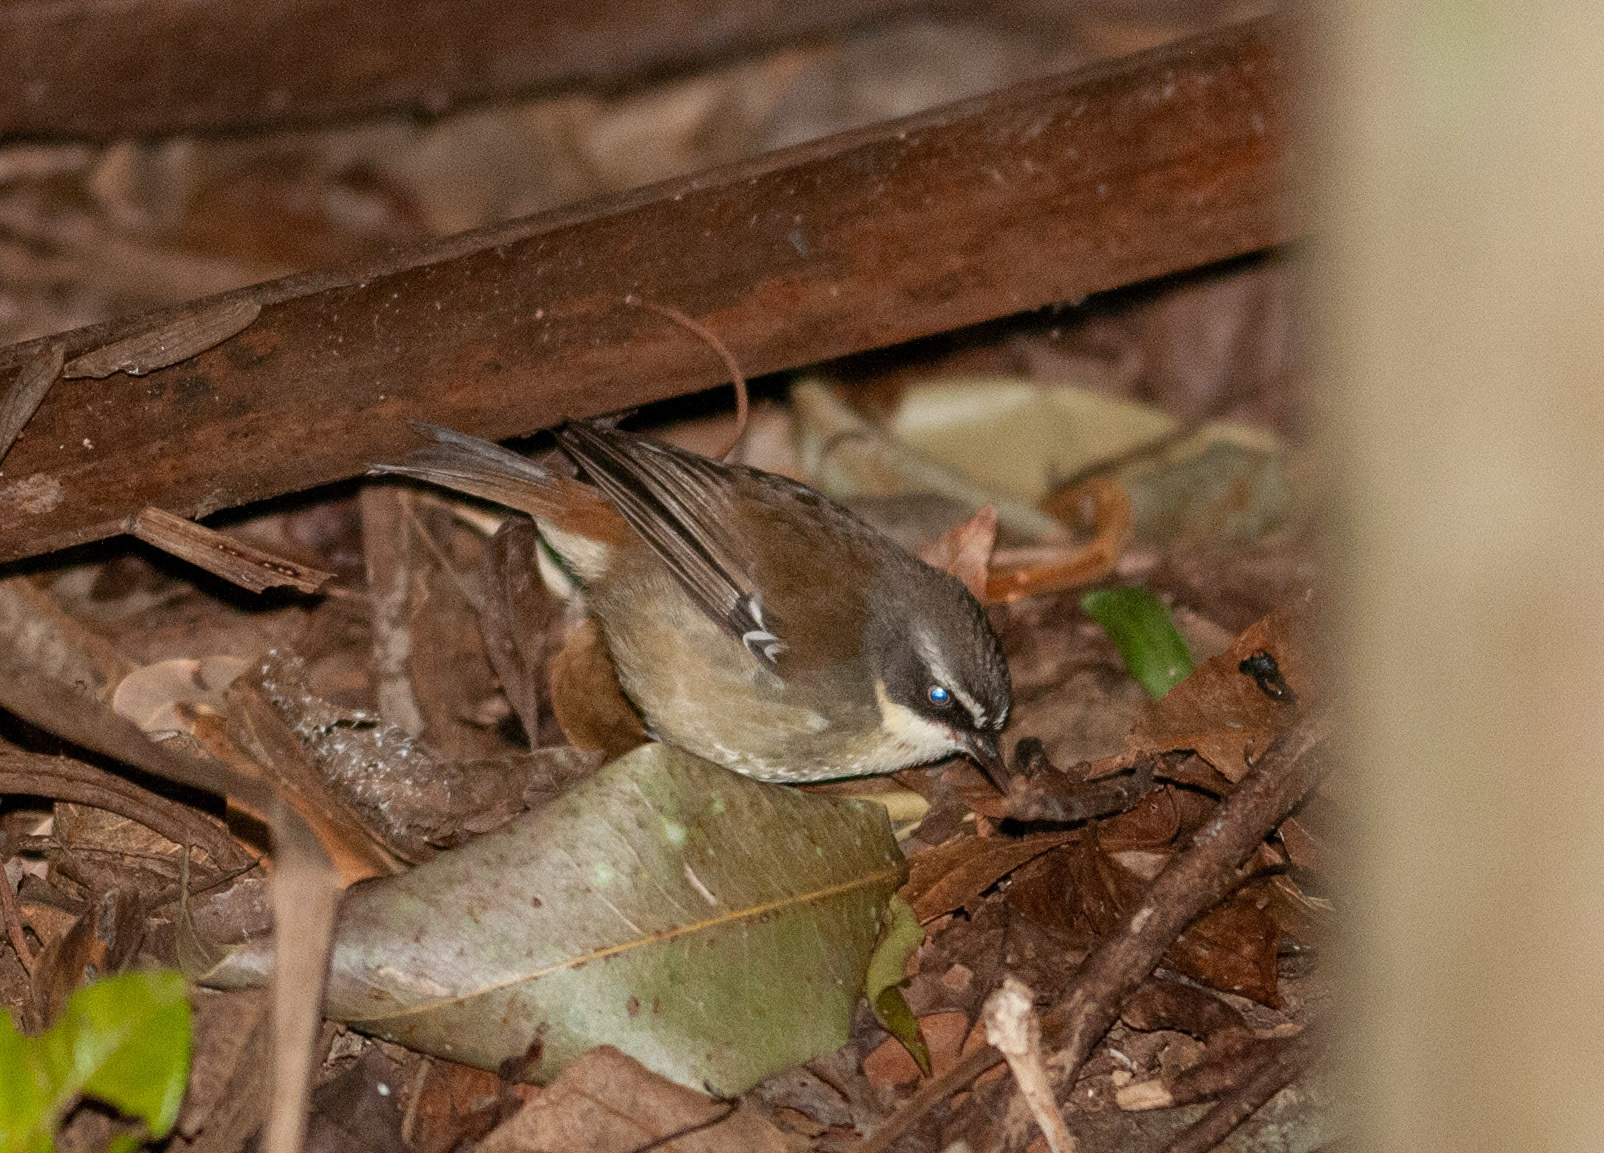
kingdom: Animalia
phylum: Chordata
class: Aves
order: Passeriformes
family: Acanthizidae
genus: Sericornis
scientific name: Sericornis frontalis
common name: White-browed scrubwren
